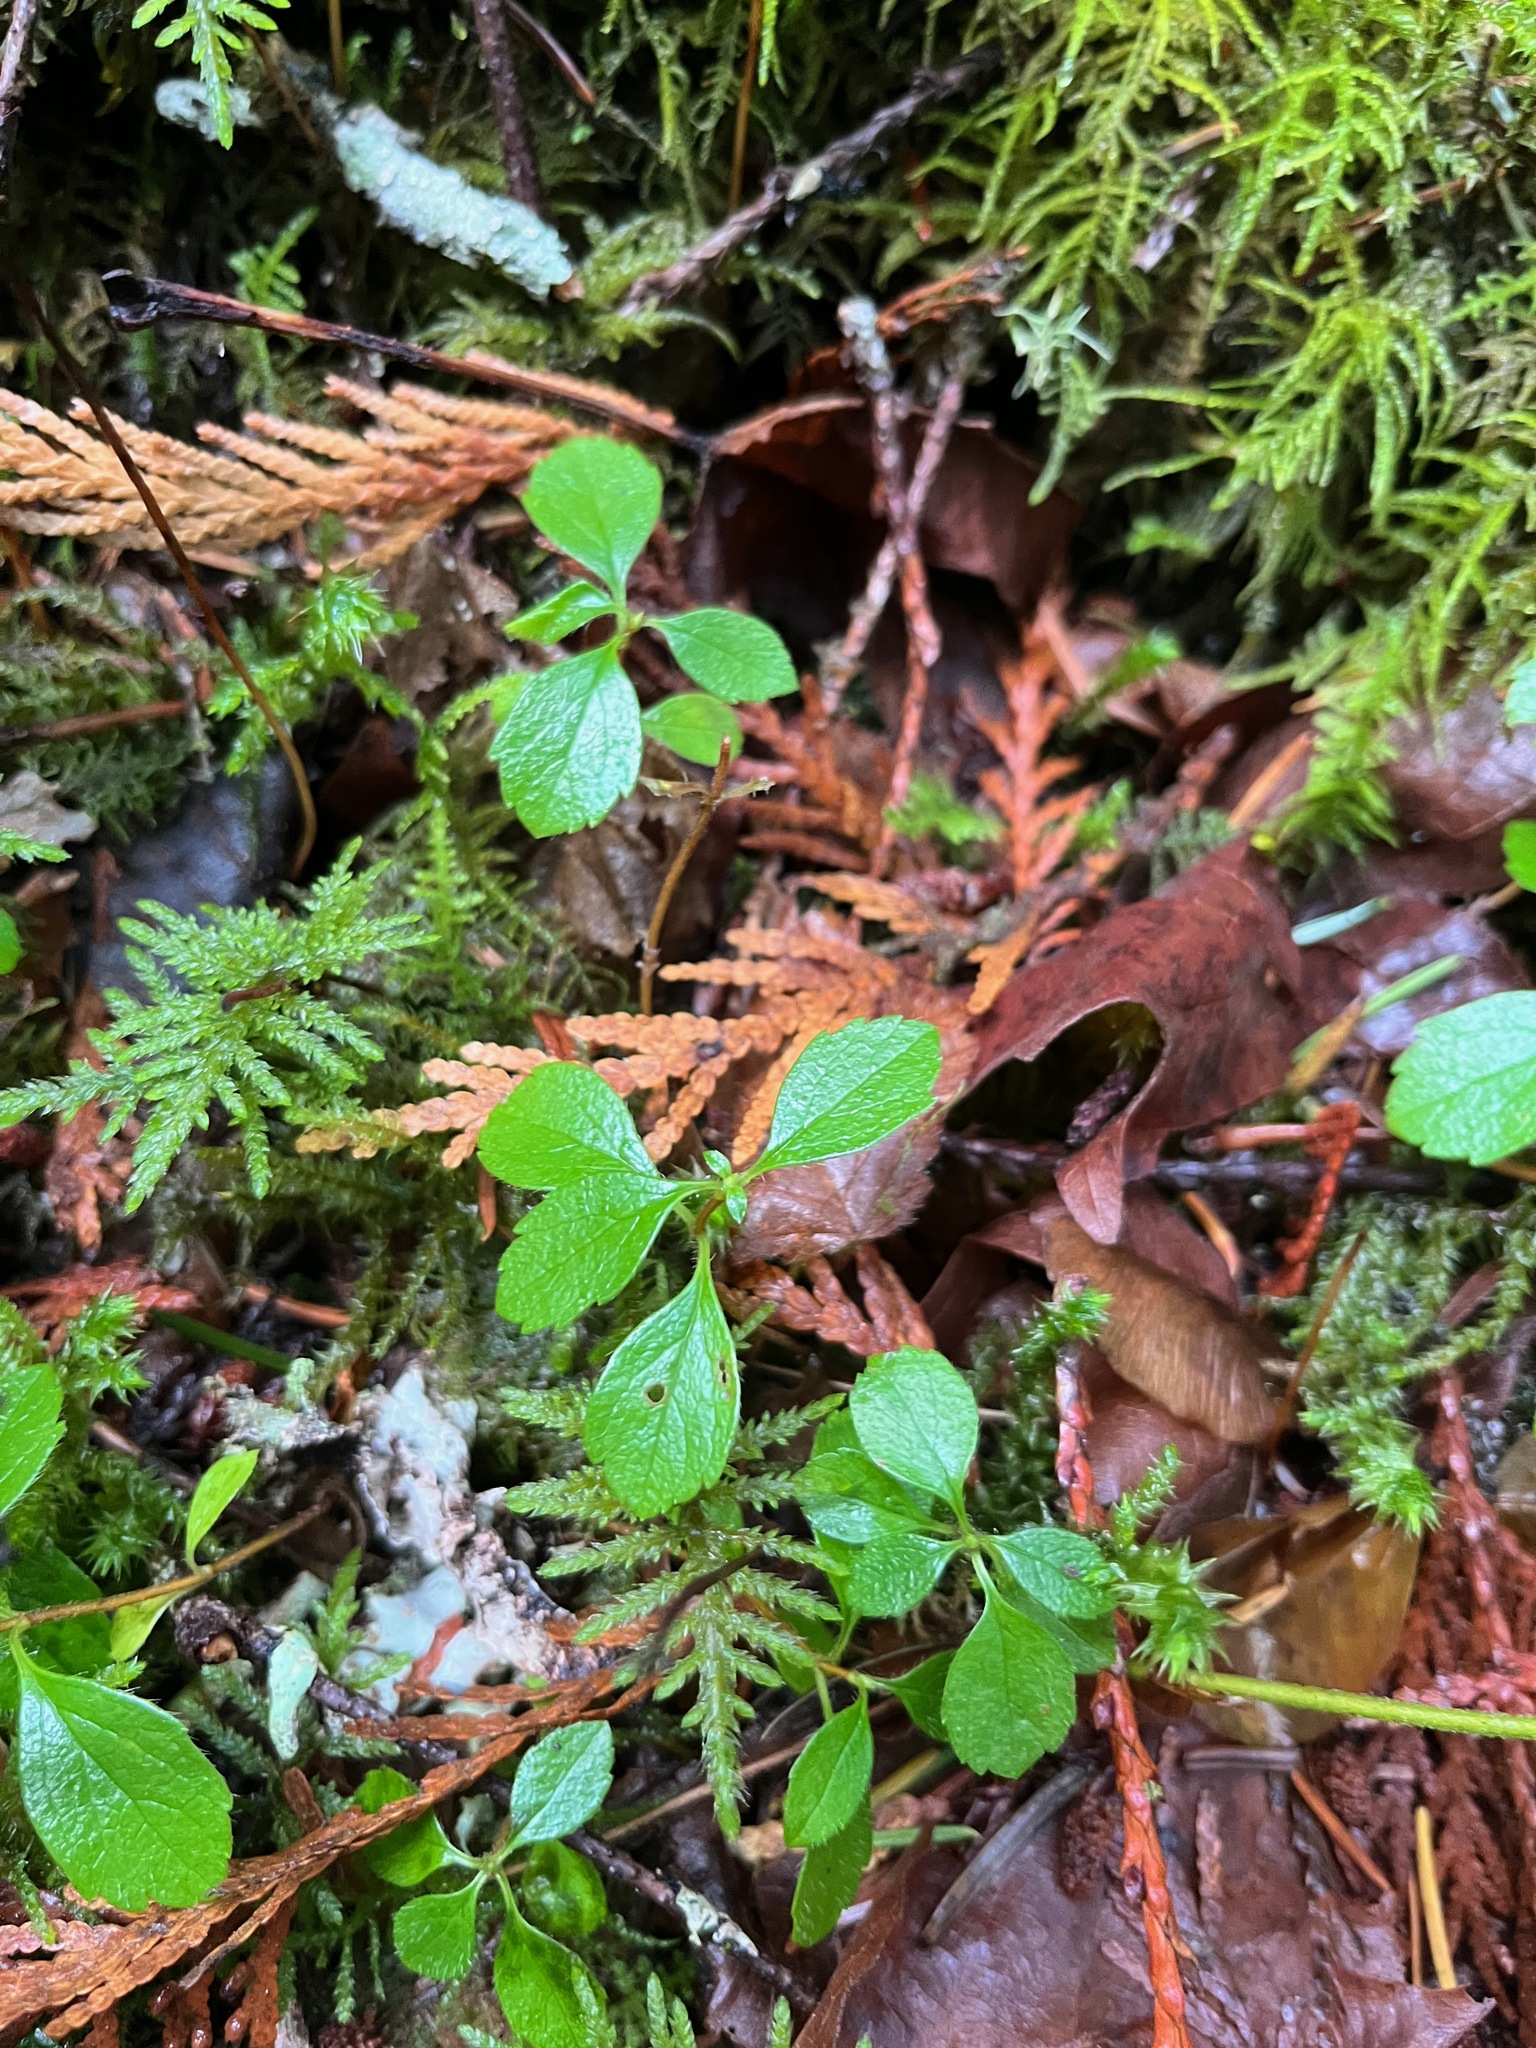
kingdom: Plantae
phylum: Tracheophyta
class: Magnoliopsida
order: Dipsacales
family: Caprifoliaceae
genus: Linnaea
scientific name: Linnaea borealis
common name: Twinflower
